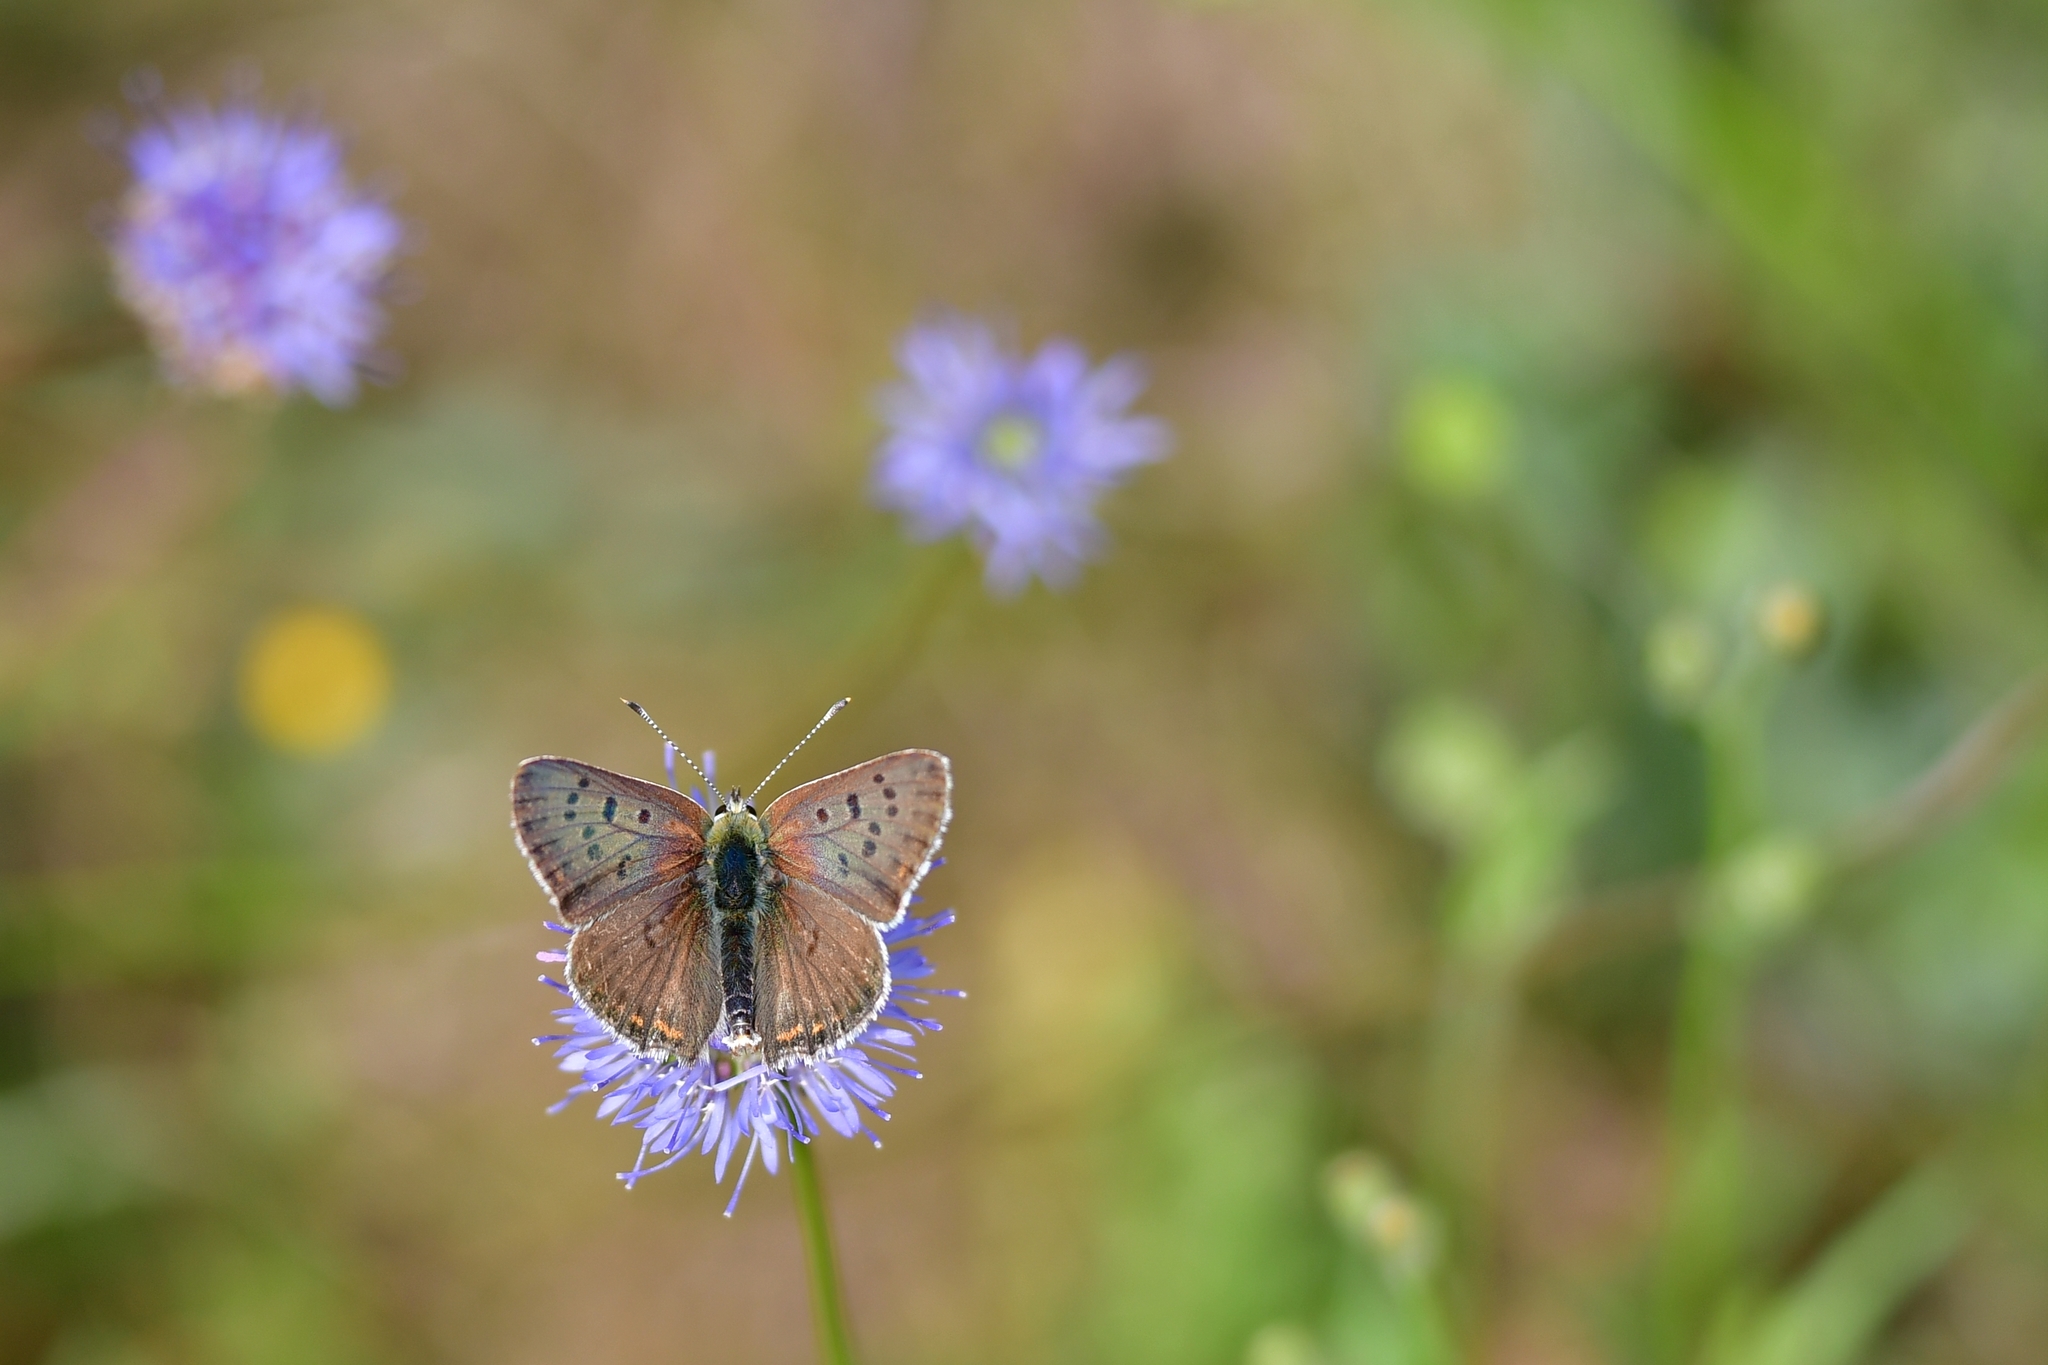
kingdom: Animalia
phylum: Arthropoda
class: Insecta
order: Lepidoptera
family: Lycaenidae
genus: Loweia
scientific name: Loweia tityrus
